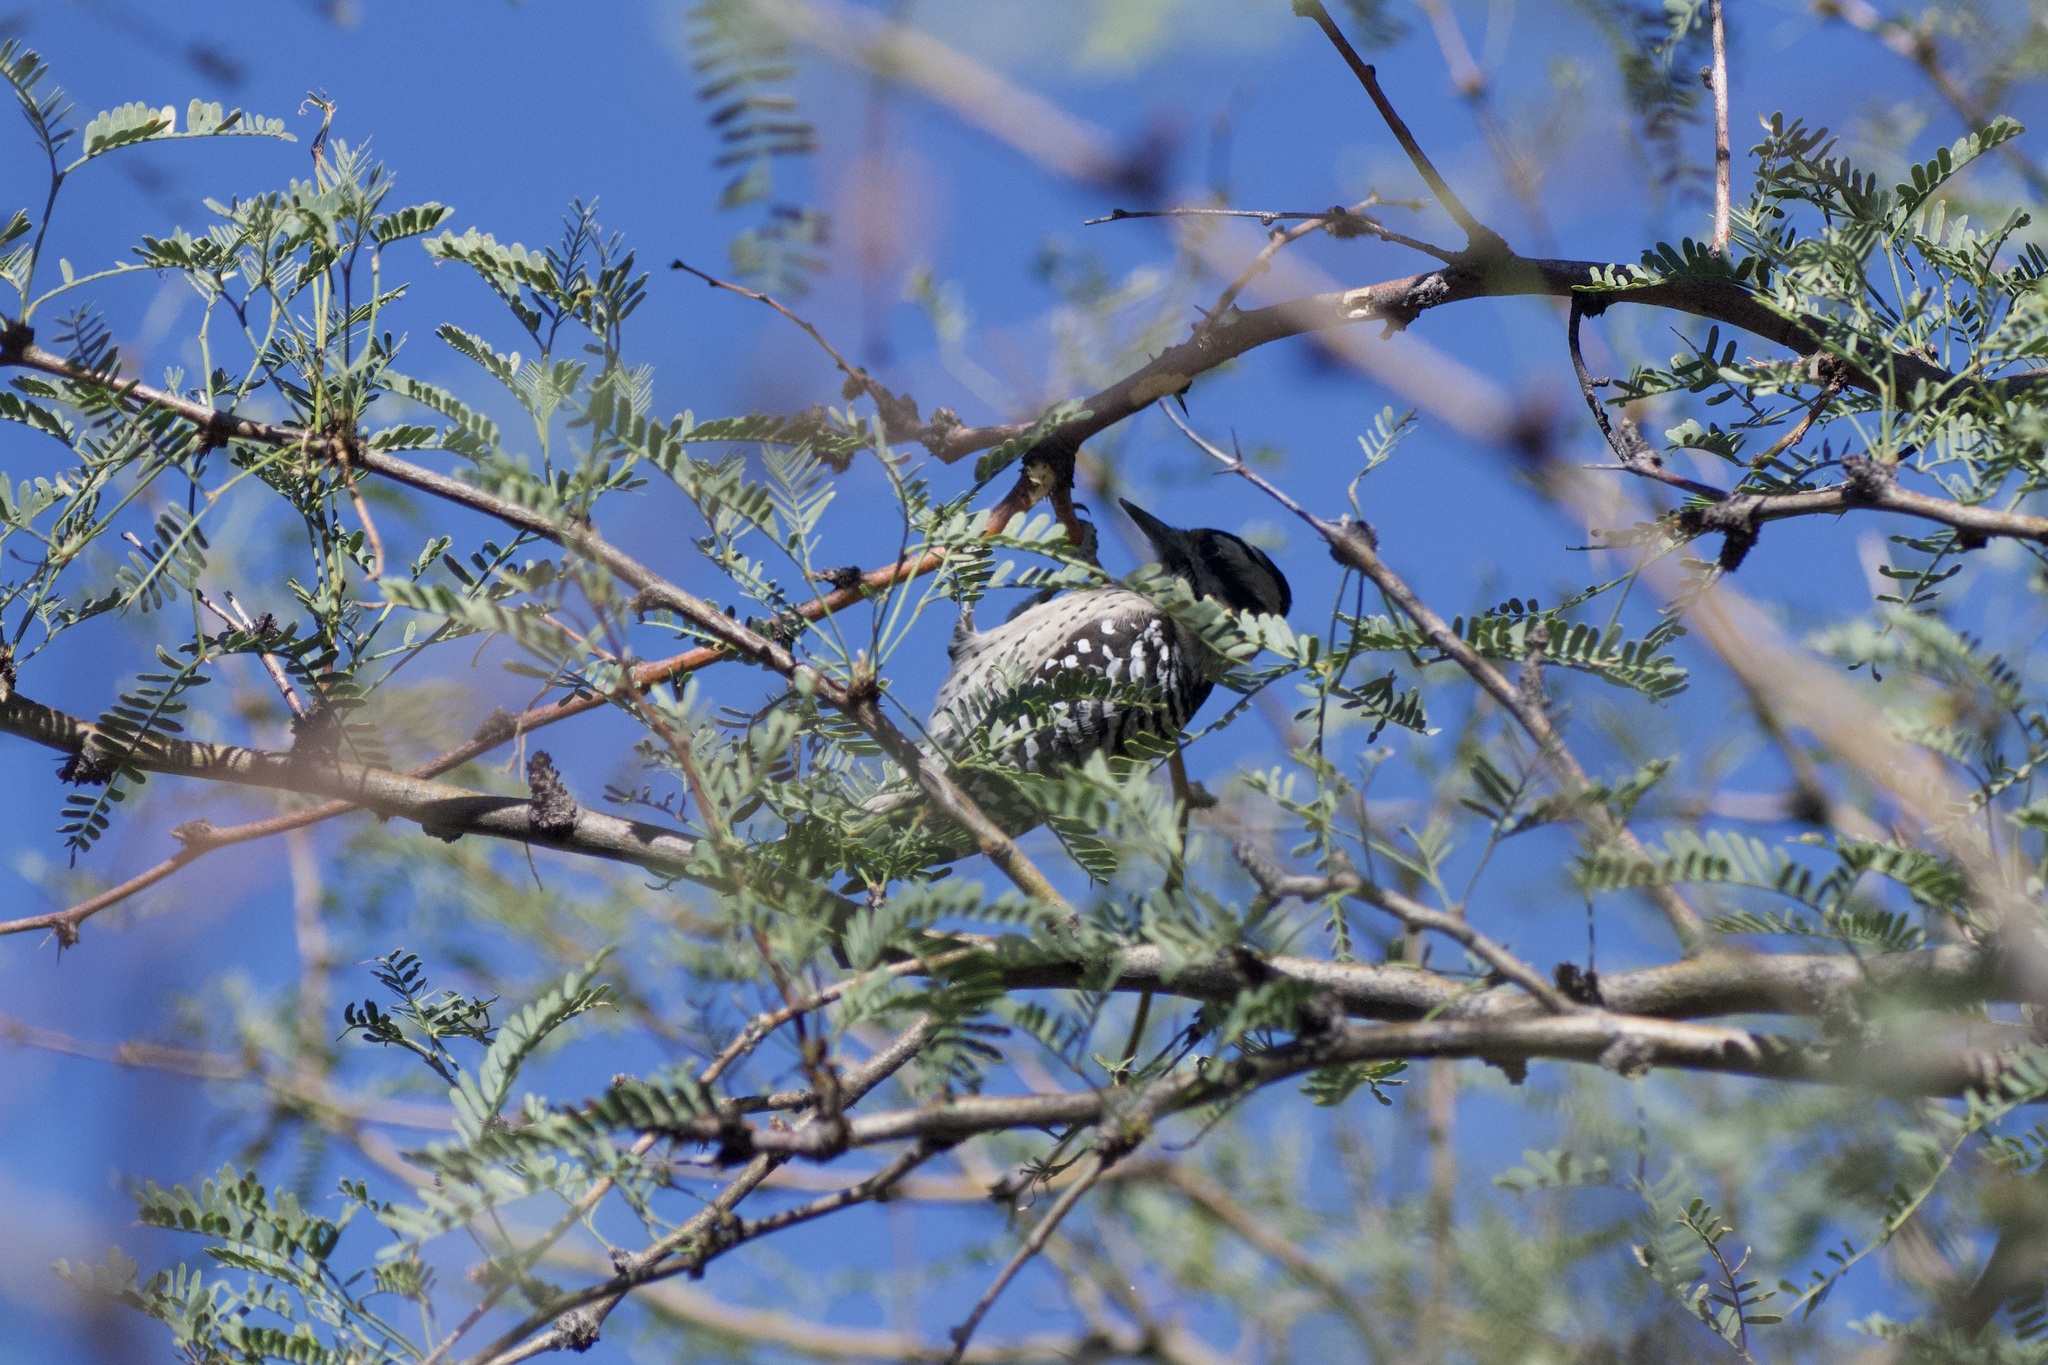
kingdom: Animalia
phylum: Chordata
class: Aves
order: Piciformes
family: Picidae
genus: Dryobates
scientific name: Dryobates scalaris
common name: Ladder-backed woodpecker
